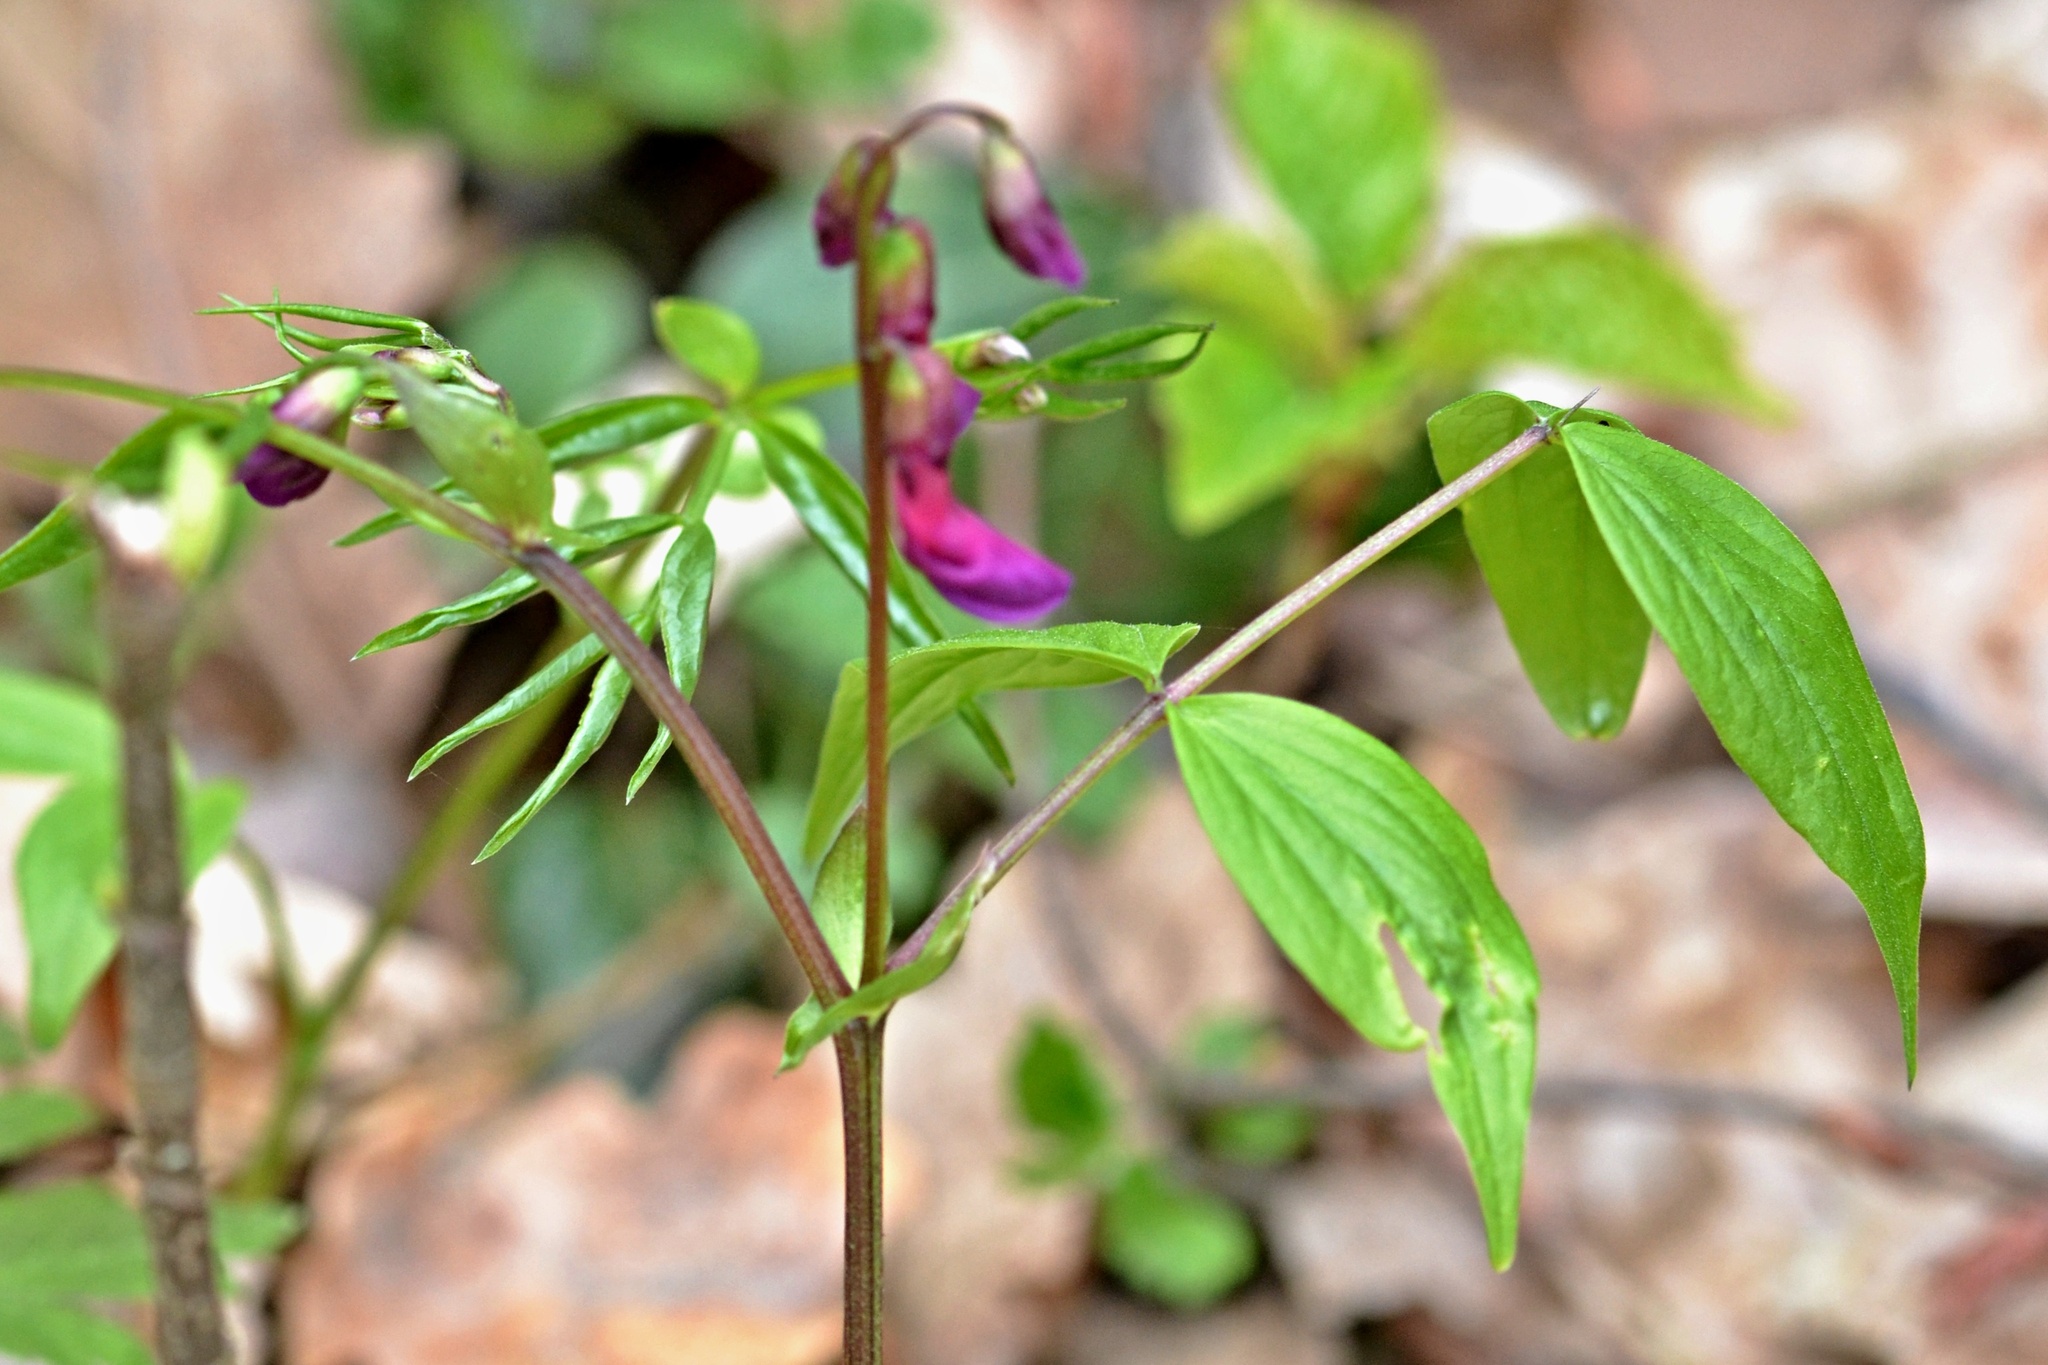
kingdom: Plantae
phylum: Tracheophyta
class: Magnoliopsida
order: Fabales
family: Fabaceae
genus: Lathyrus
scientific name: Lathyrus vernus
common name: Spring pea
